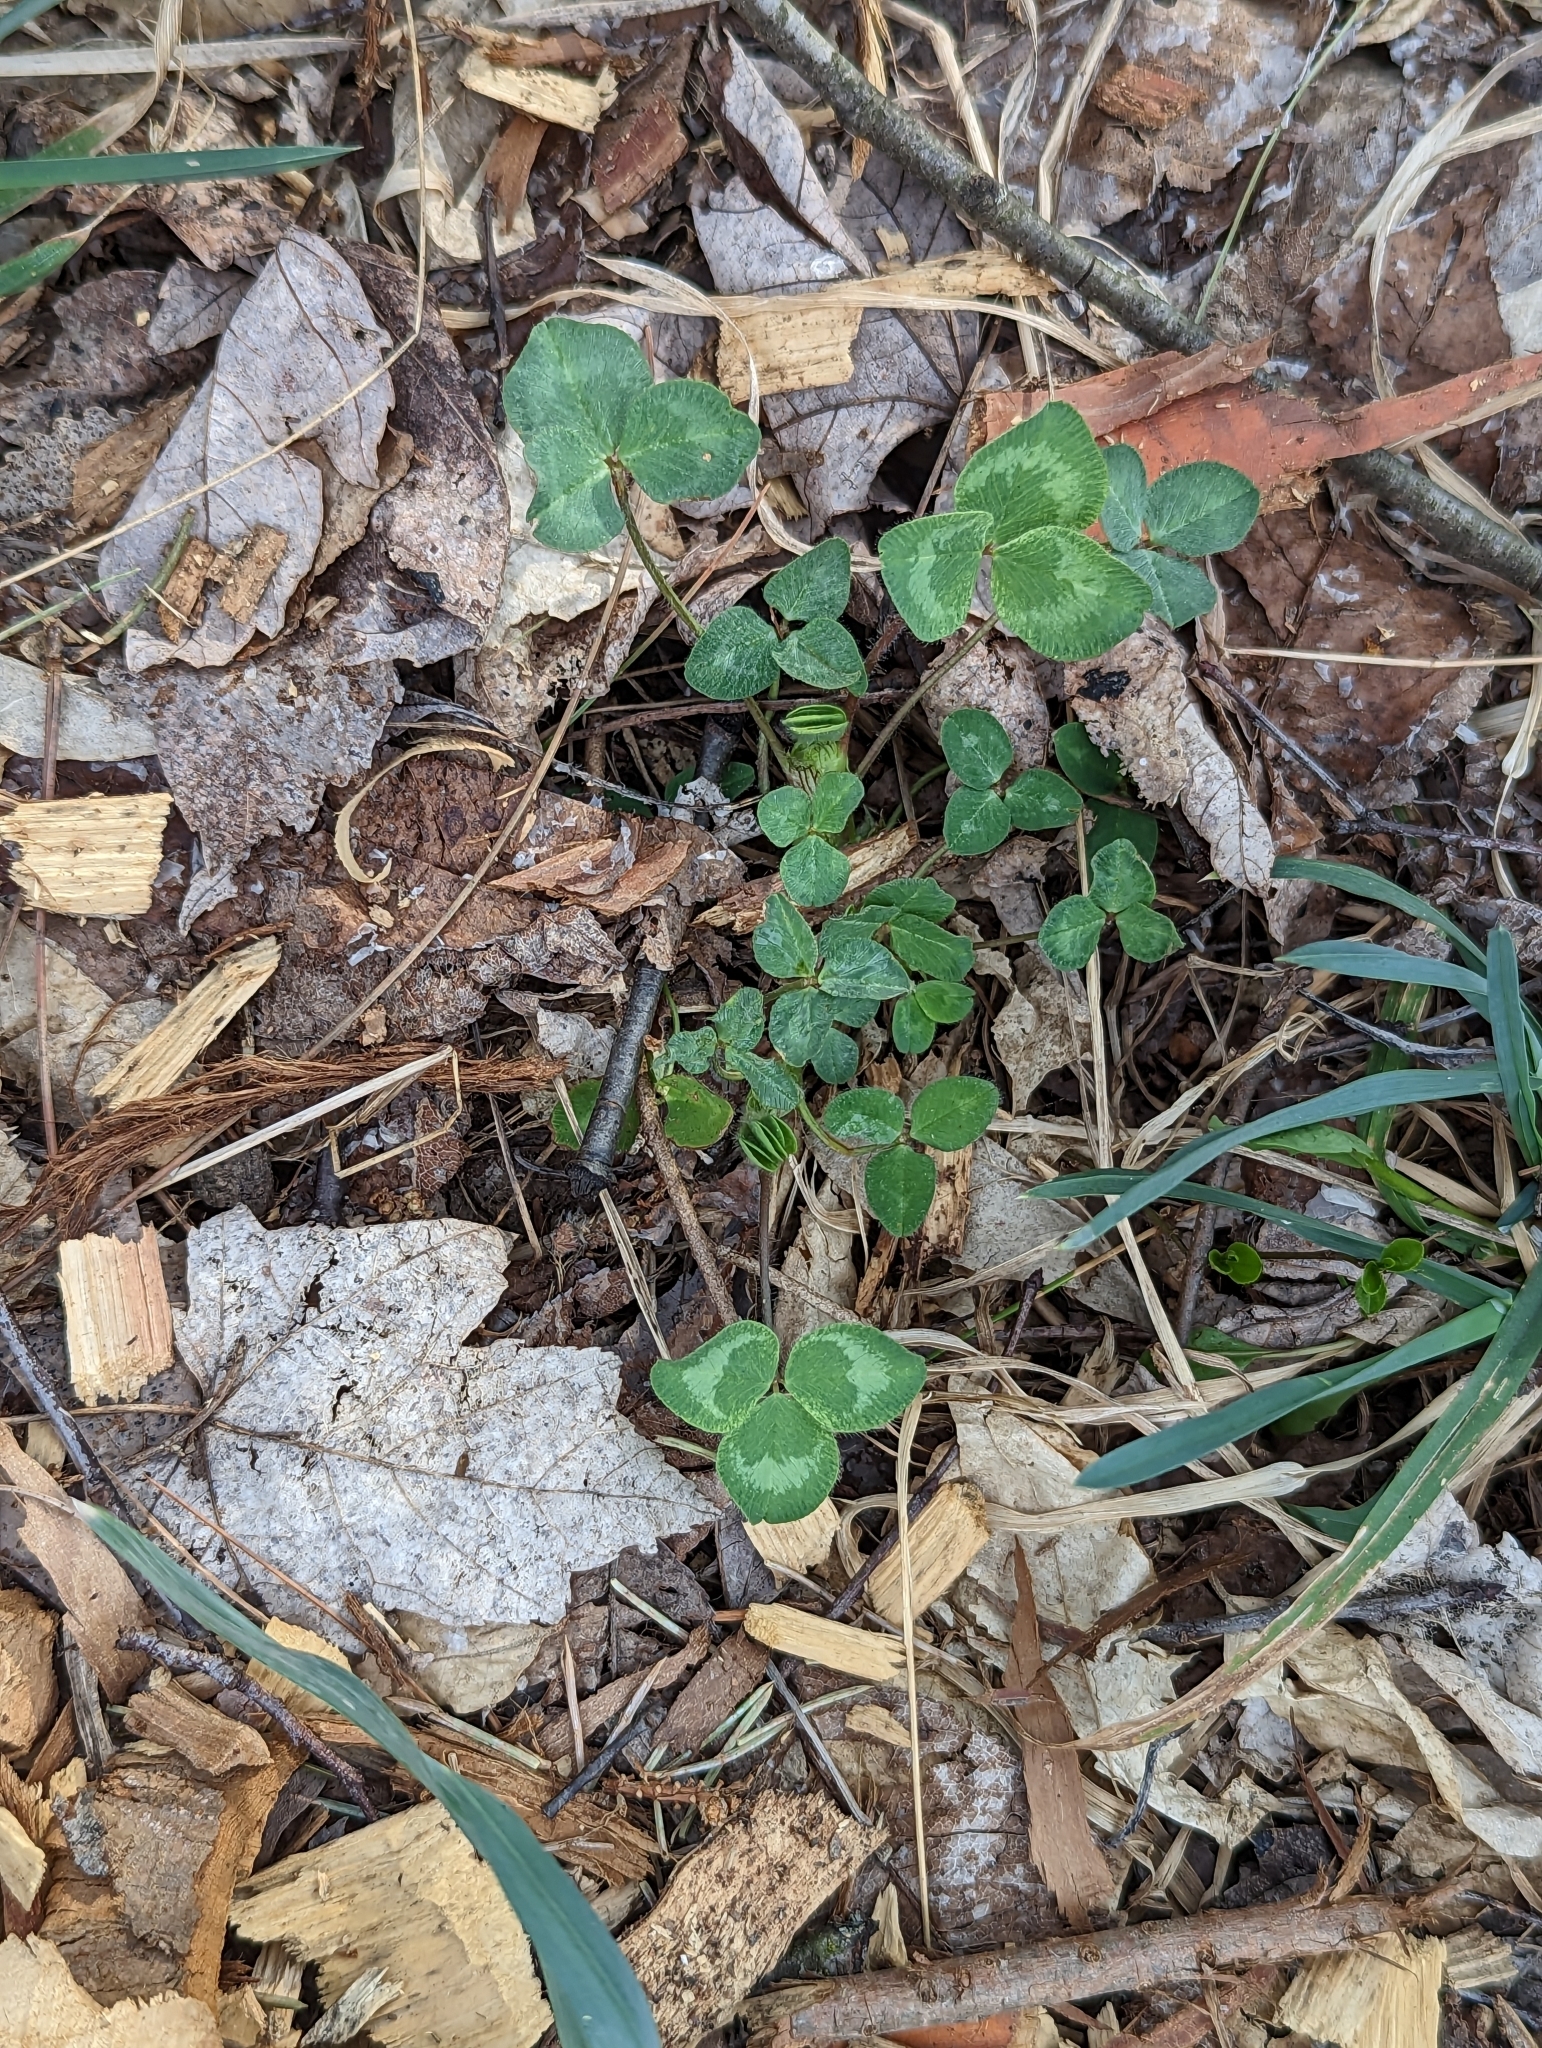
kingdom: Plantae
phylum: Tracheophyta
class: Magnoliopsida
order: Fabales
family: Fabaceae
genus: Trifolium
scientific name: Trifolium pratense
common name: Red clover
